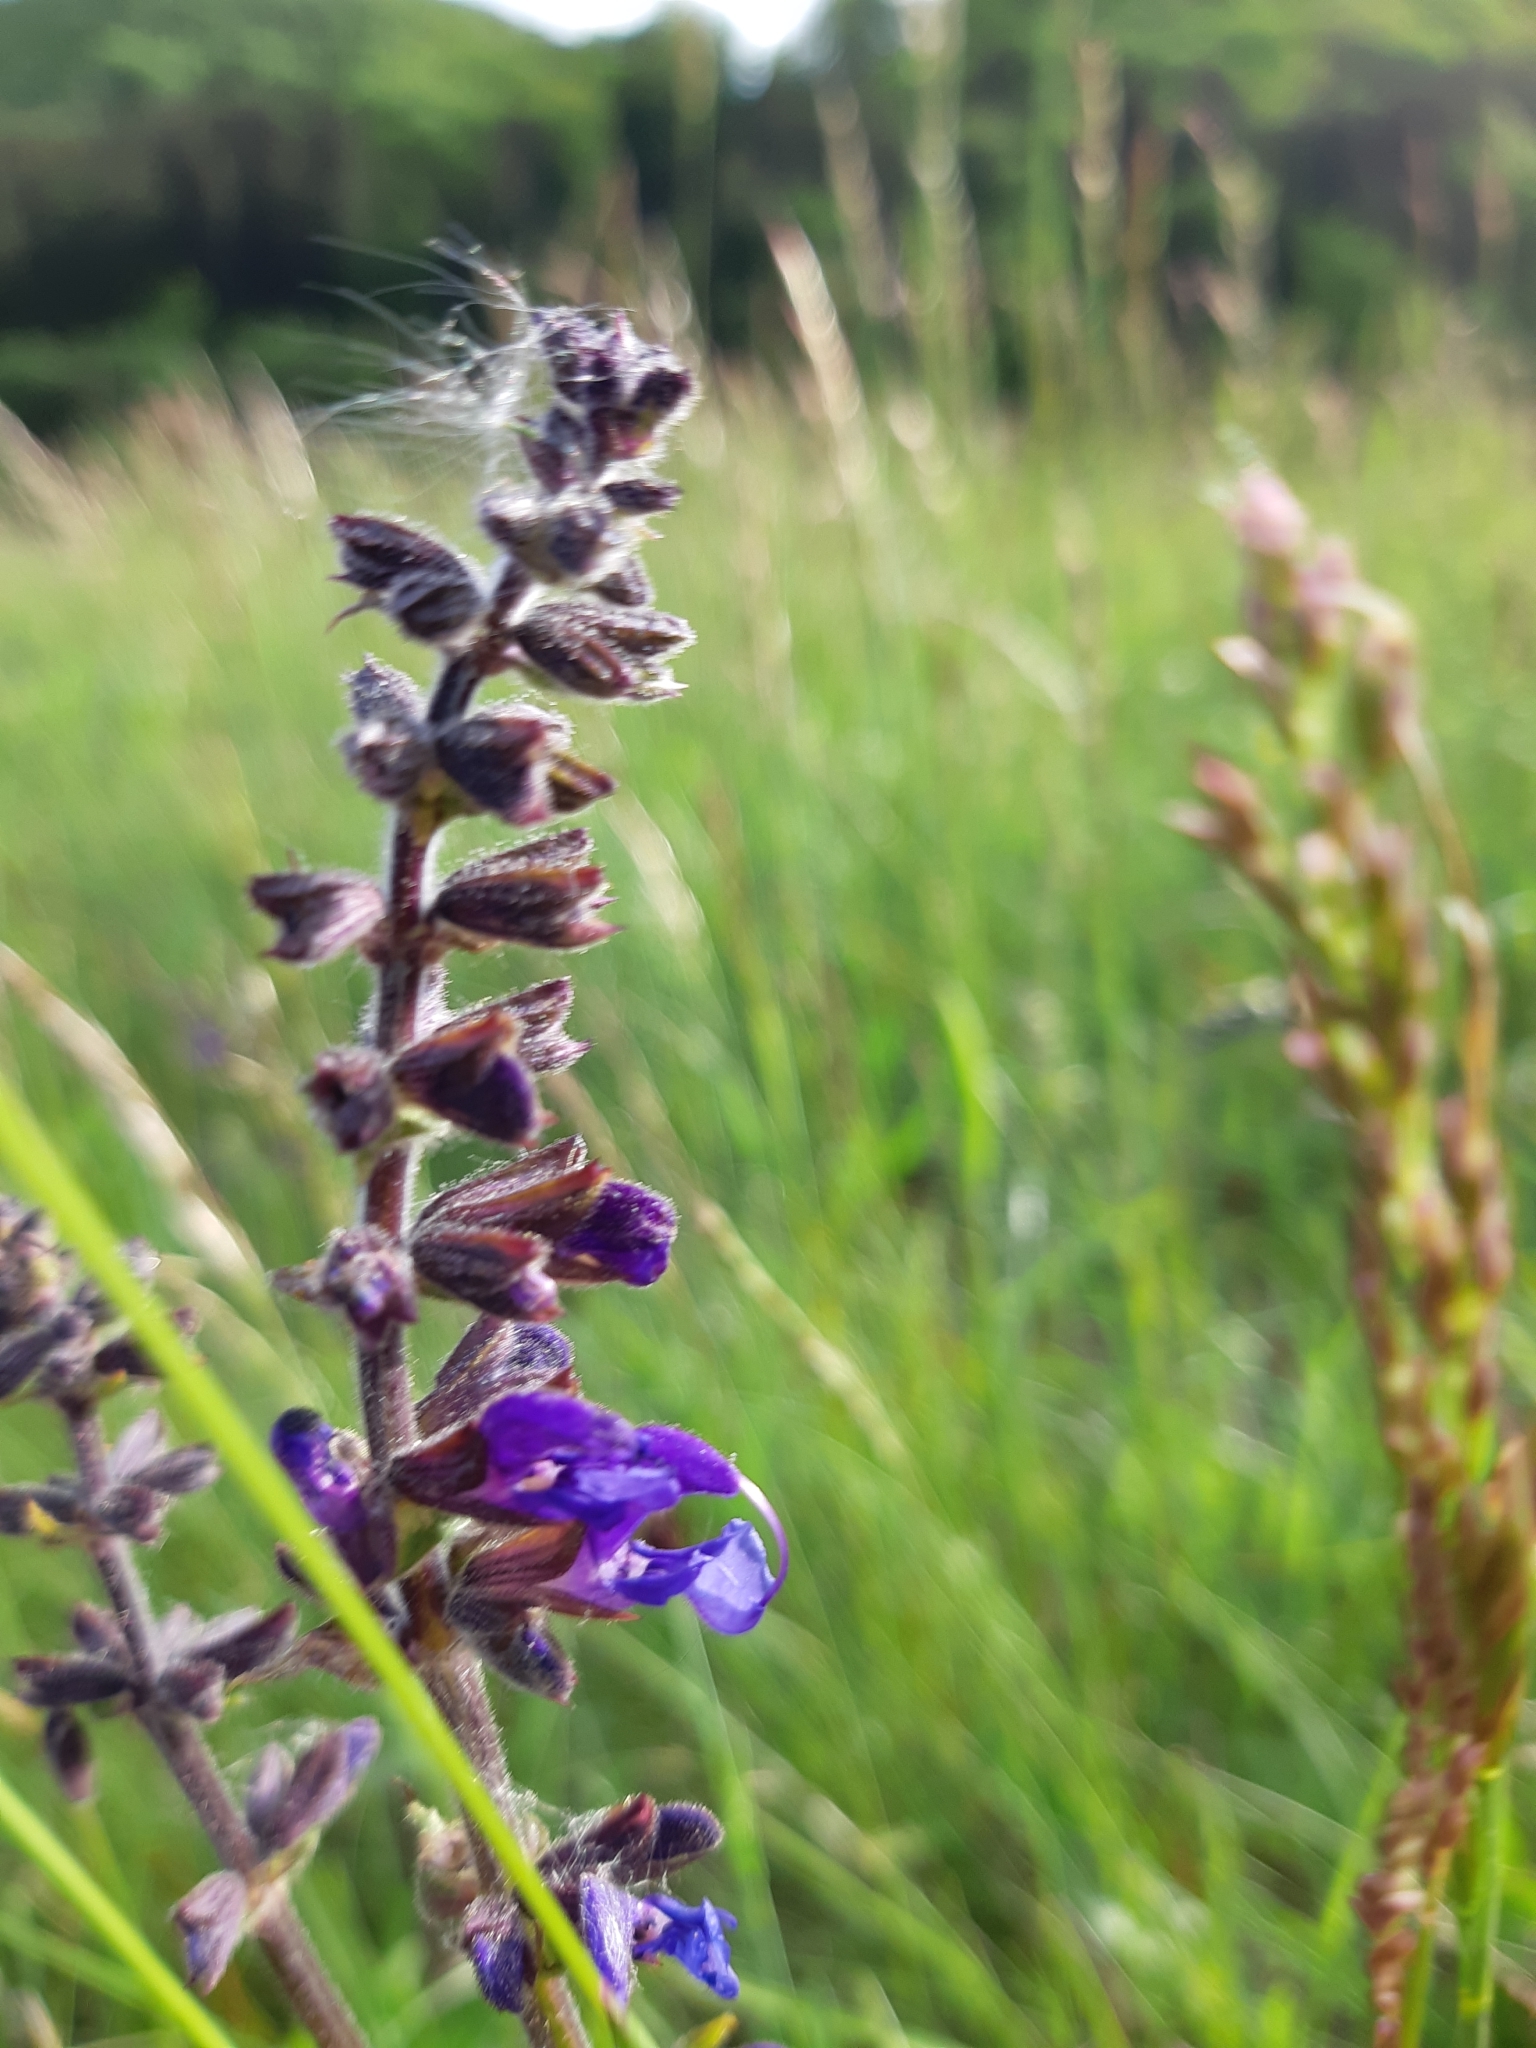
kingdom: Plantae
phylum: Tracheophyta
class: Magnoliopsida
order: Lamiales
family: Lamiaceae
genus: Salvia
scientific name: Salvia pratensis
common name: Meadow sage
